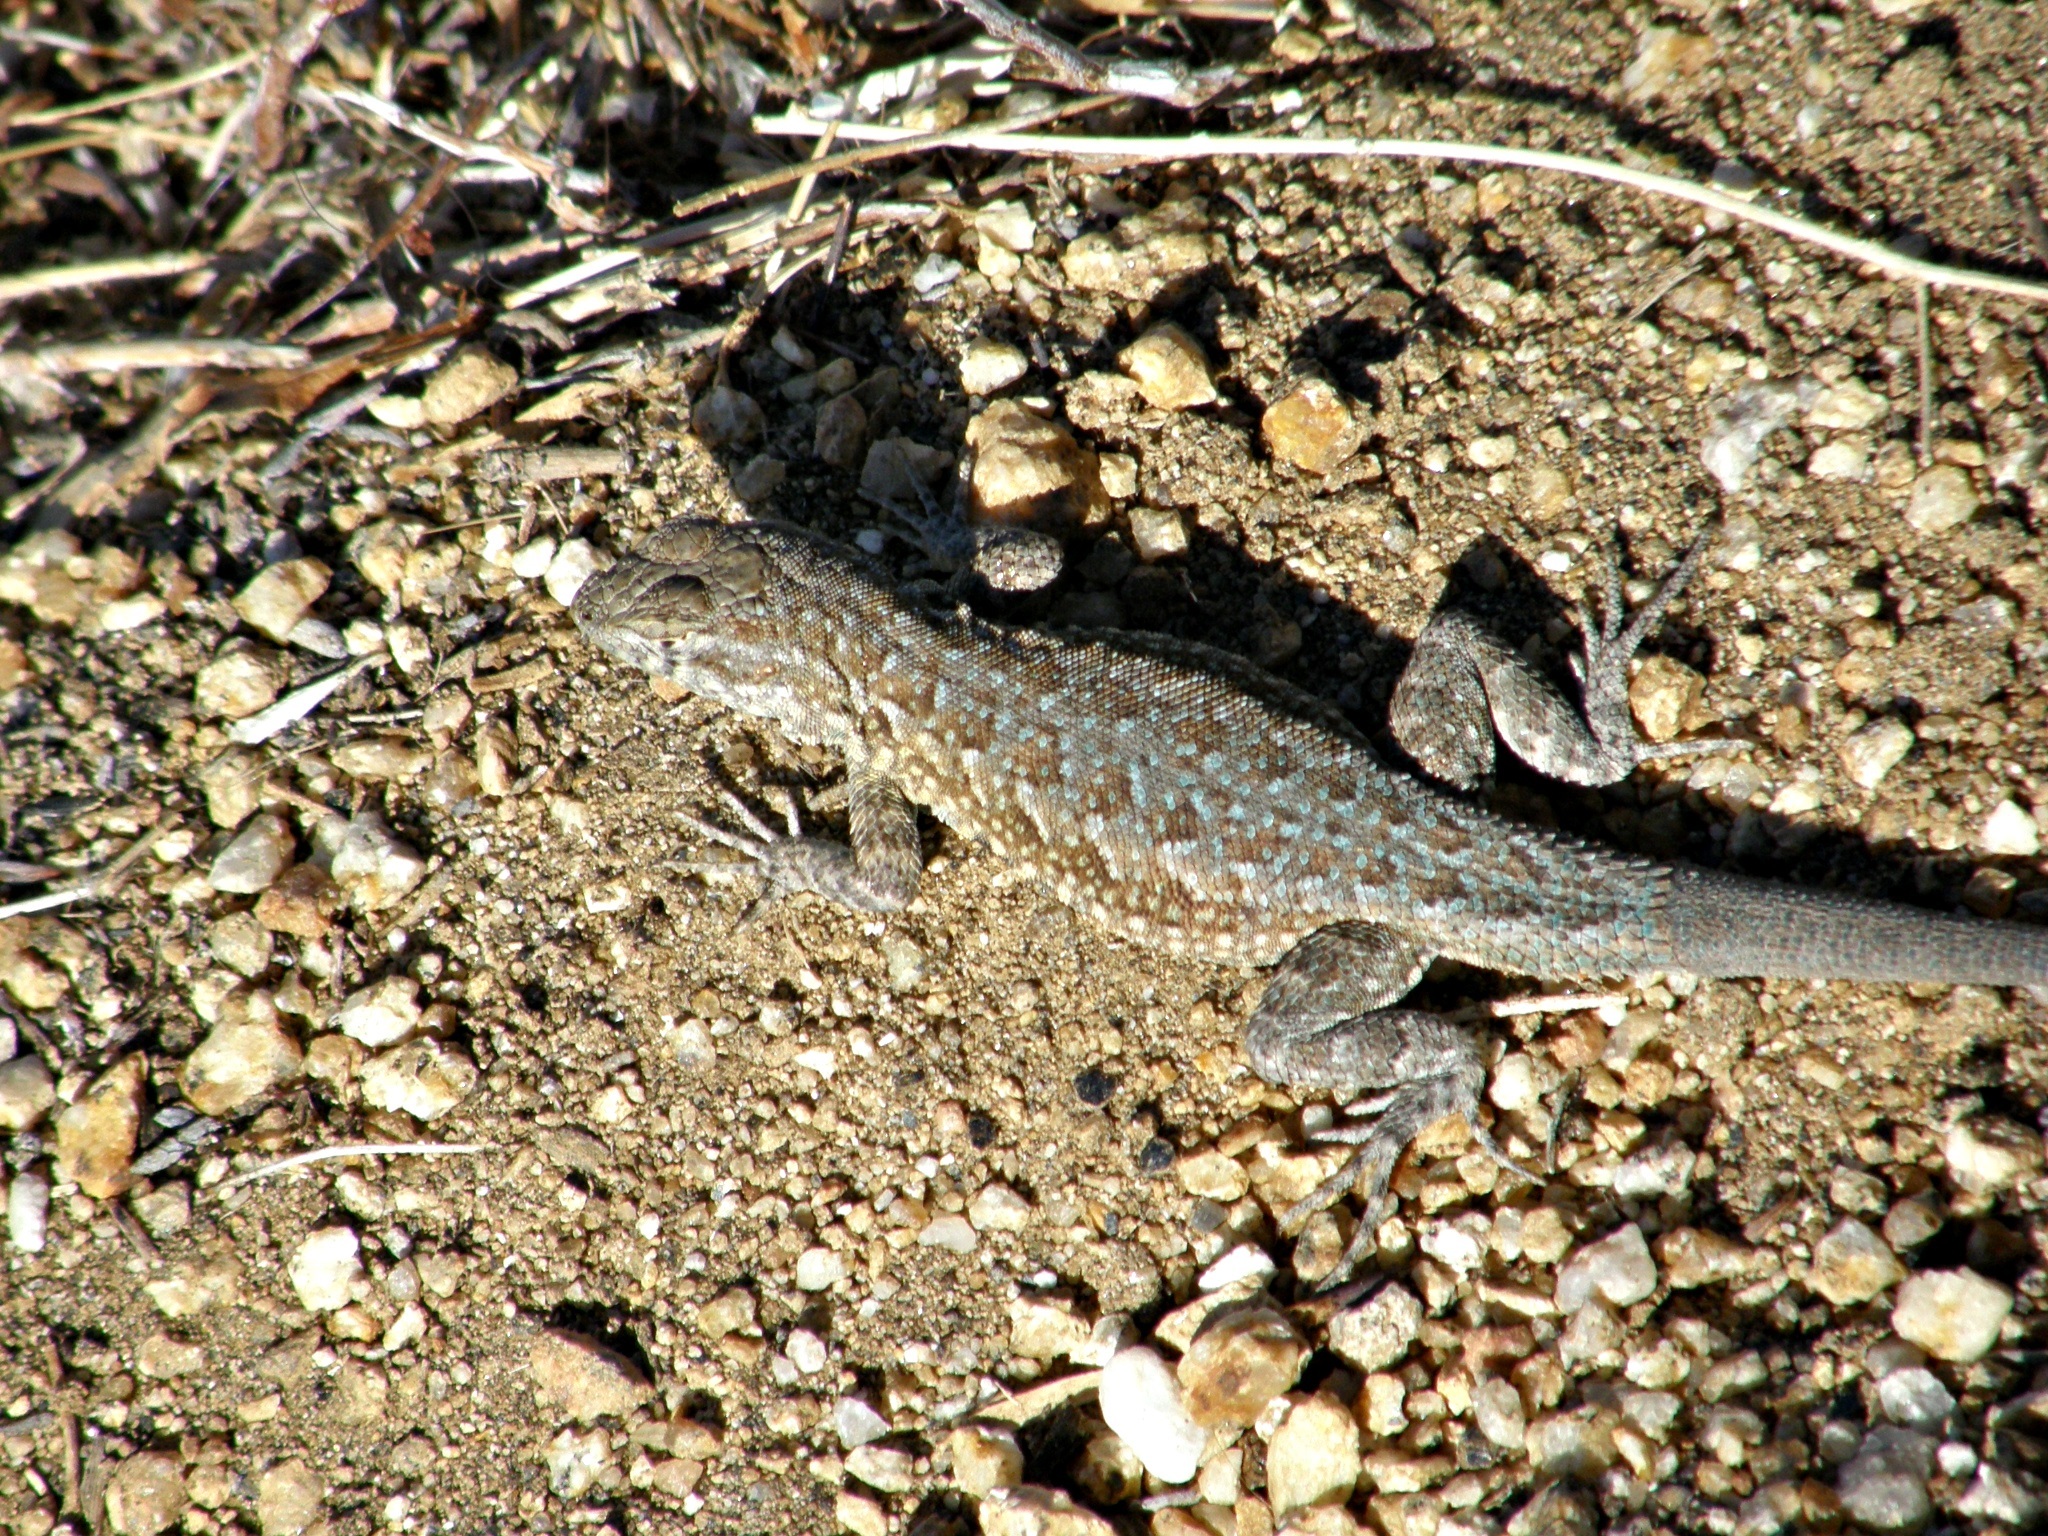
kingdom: Animalia
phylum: Chordata
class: Squamata
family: Phrynosomatidae
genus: Uta
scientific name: Uta stansburiana
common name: Side-blotched lizard
